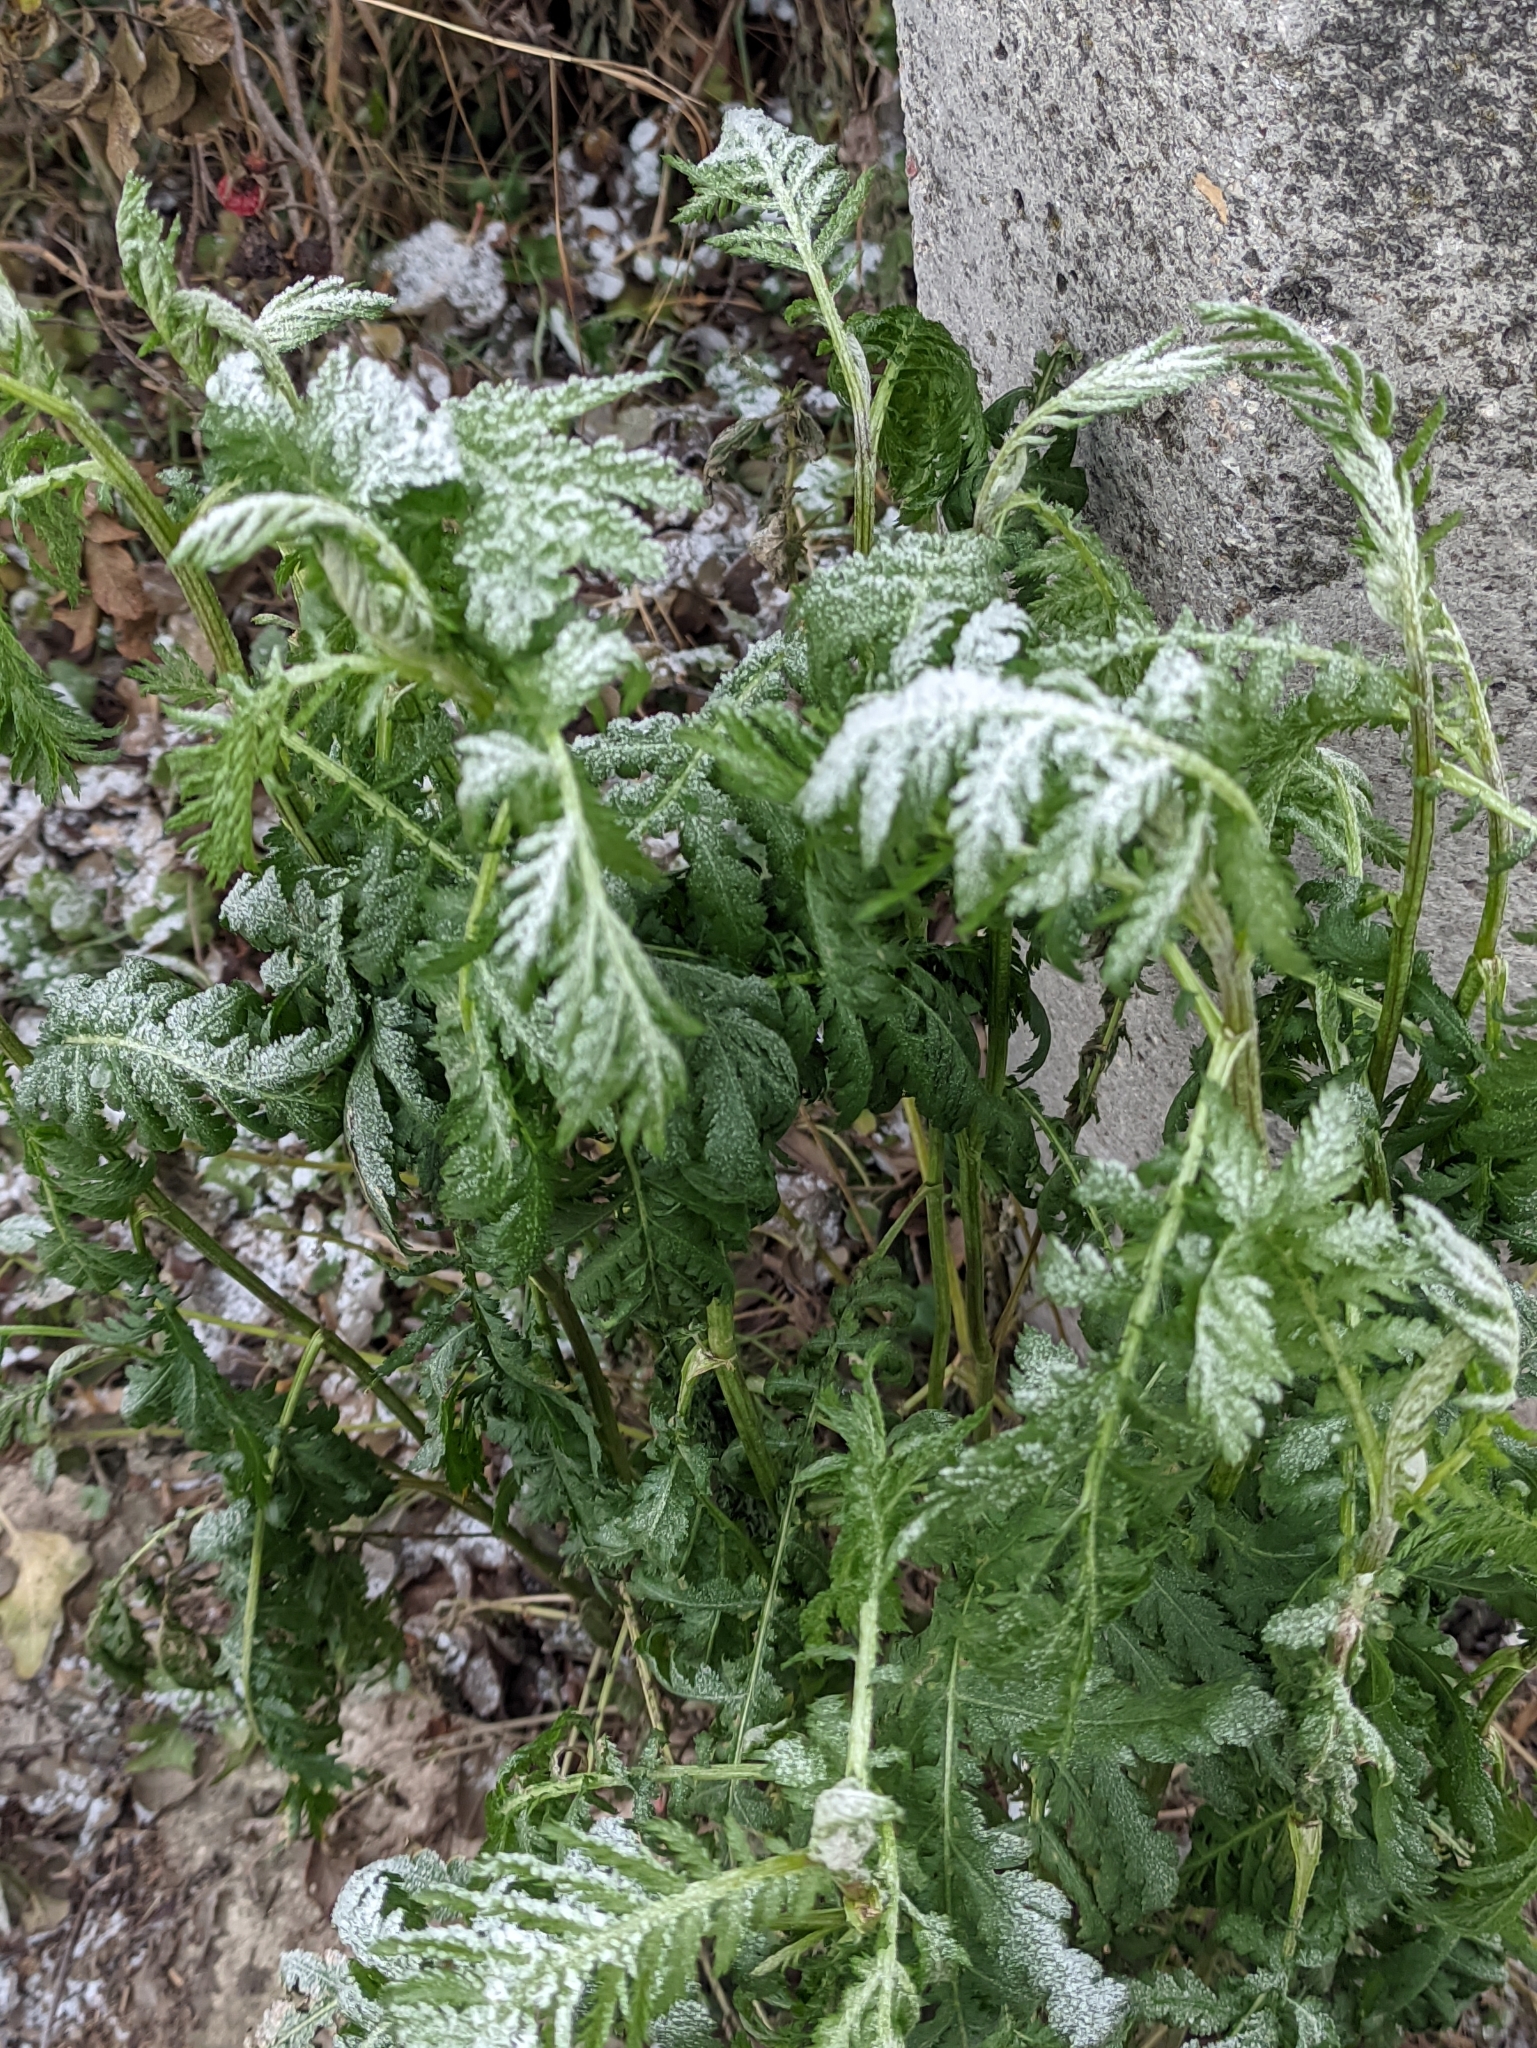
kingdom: Plantae
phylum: Tracheophyta
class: Magnoliopsida
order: Asterales
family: Asteraceae
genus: Tanacetum
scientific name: Tanacetum vulgare
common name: Common tansy
